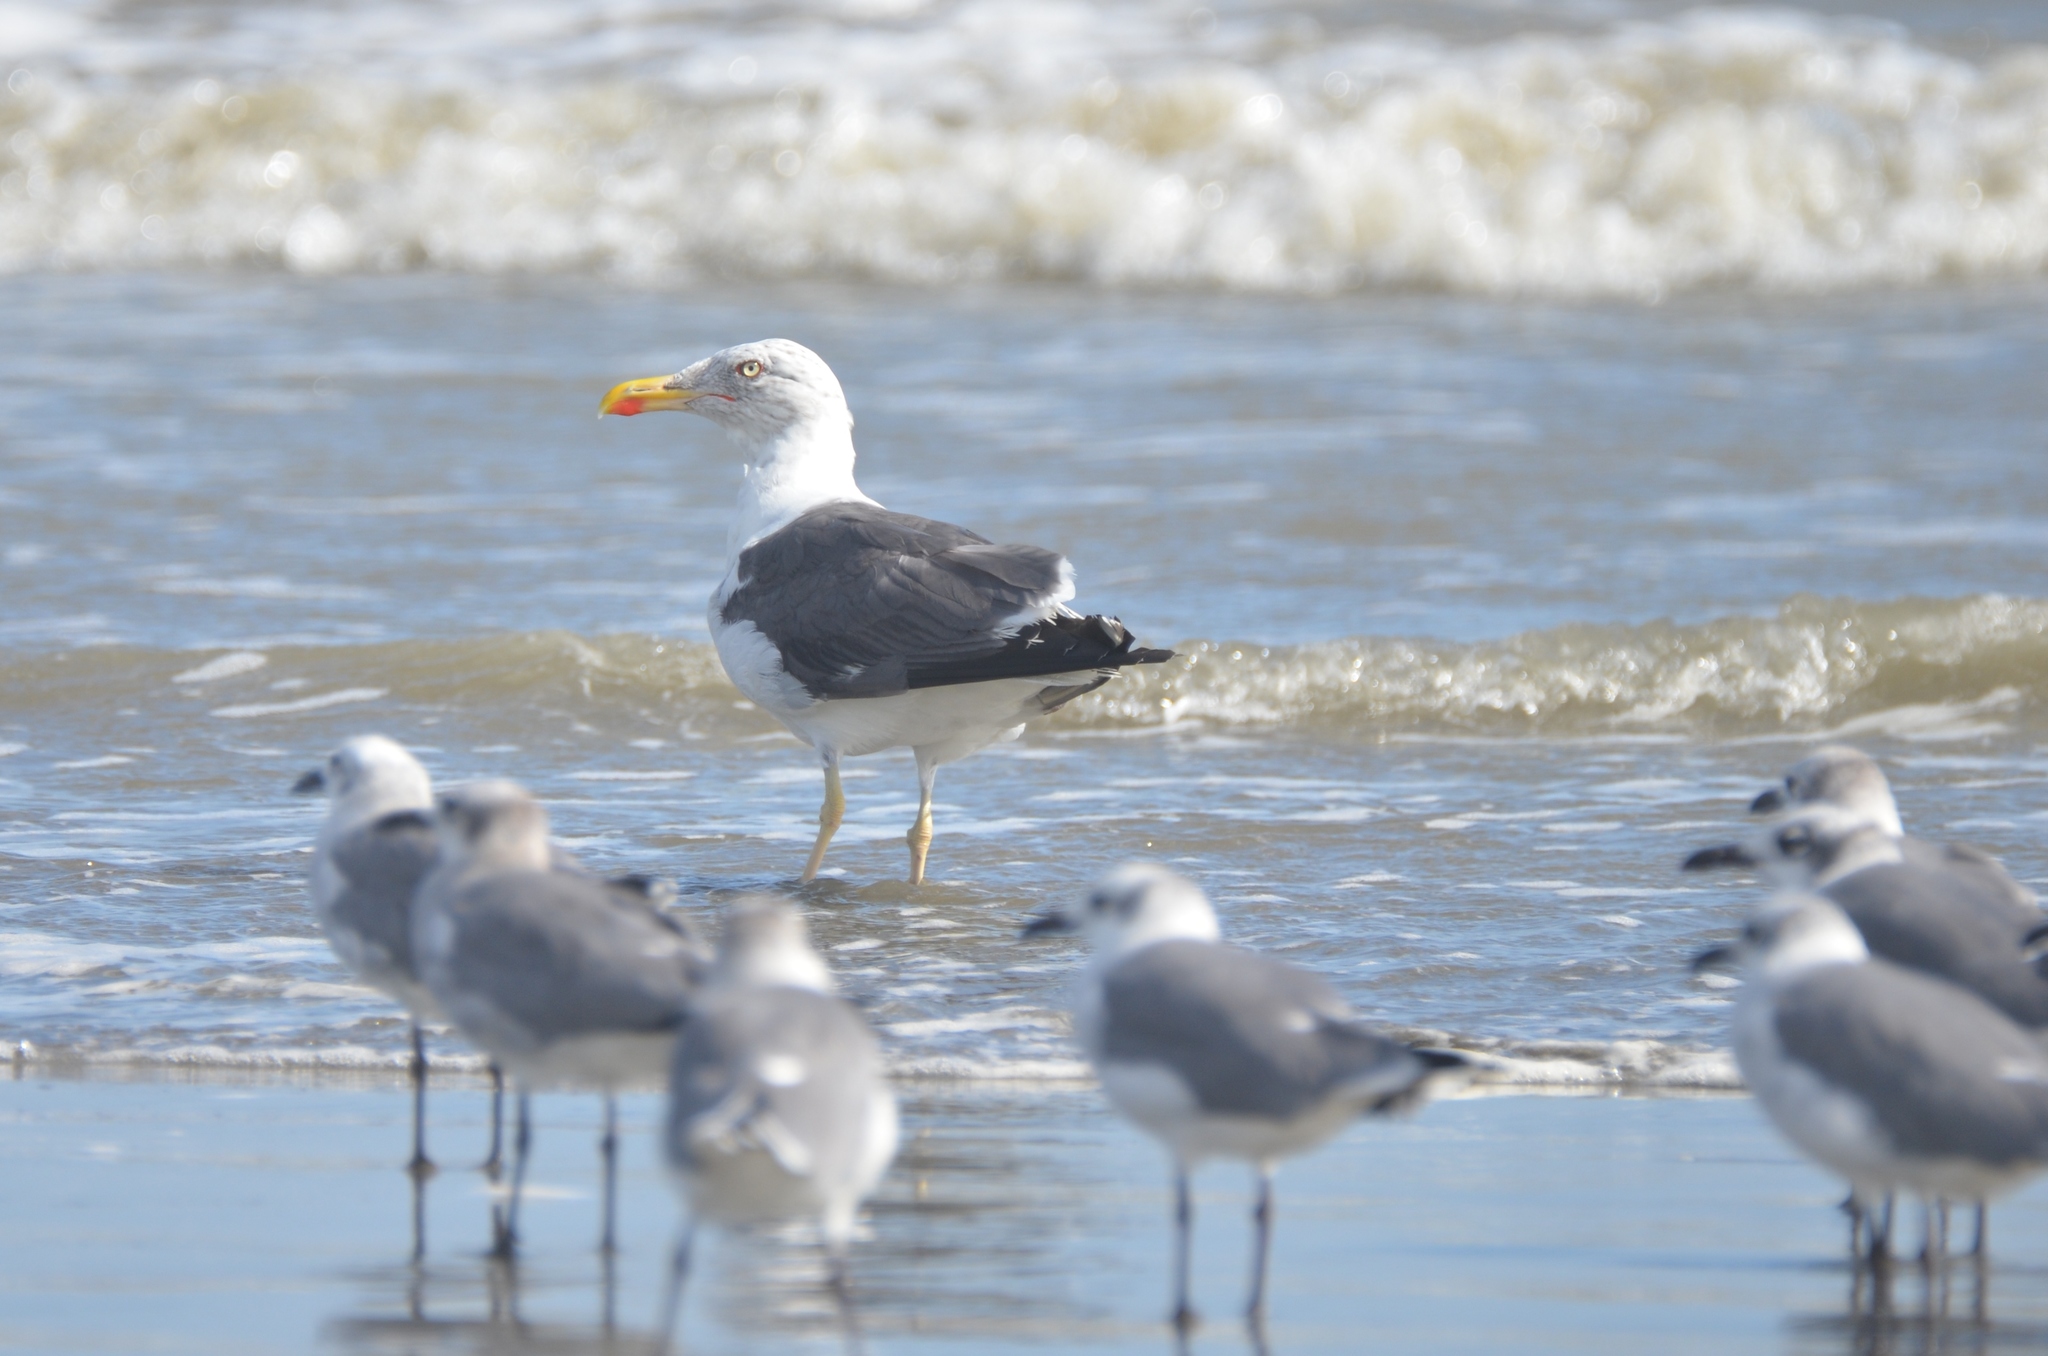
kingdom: Animalia
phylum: Chordata
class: Aves
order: Charadriiformes
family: Laridae
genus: Larus
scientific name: Larus fuscus
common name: Lesser black-backed gull
